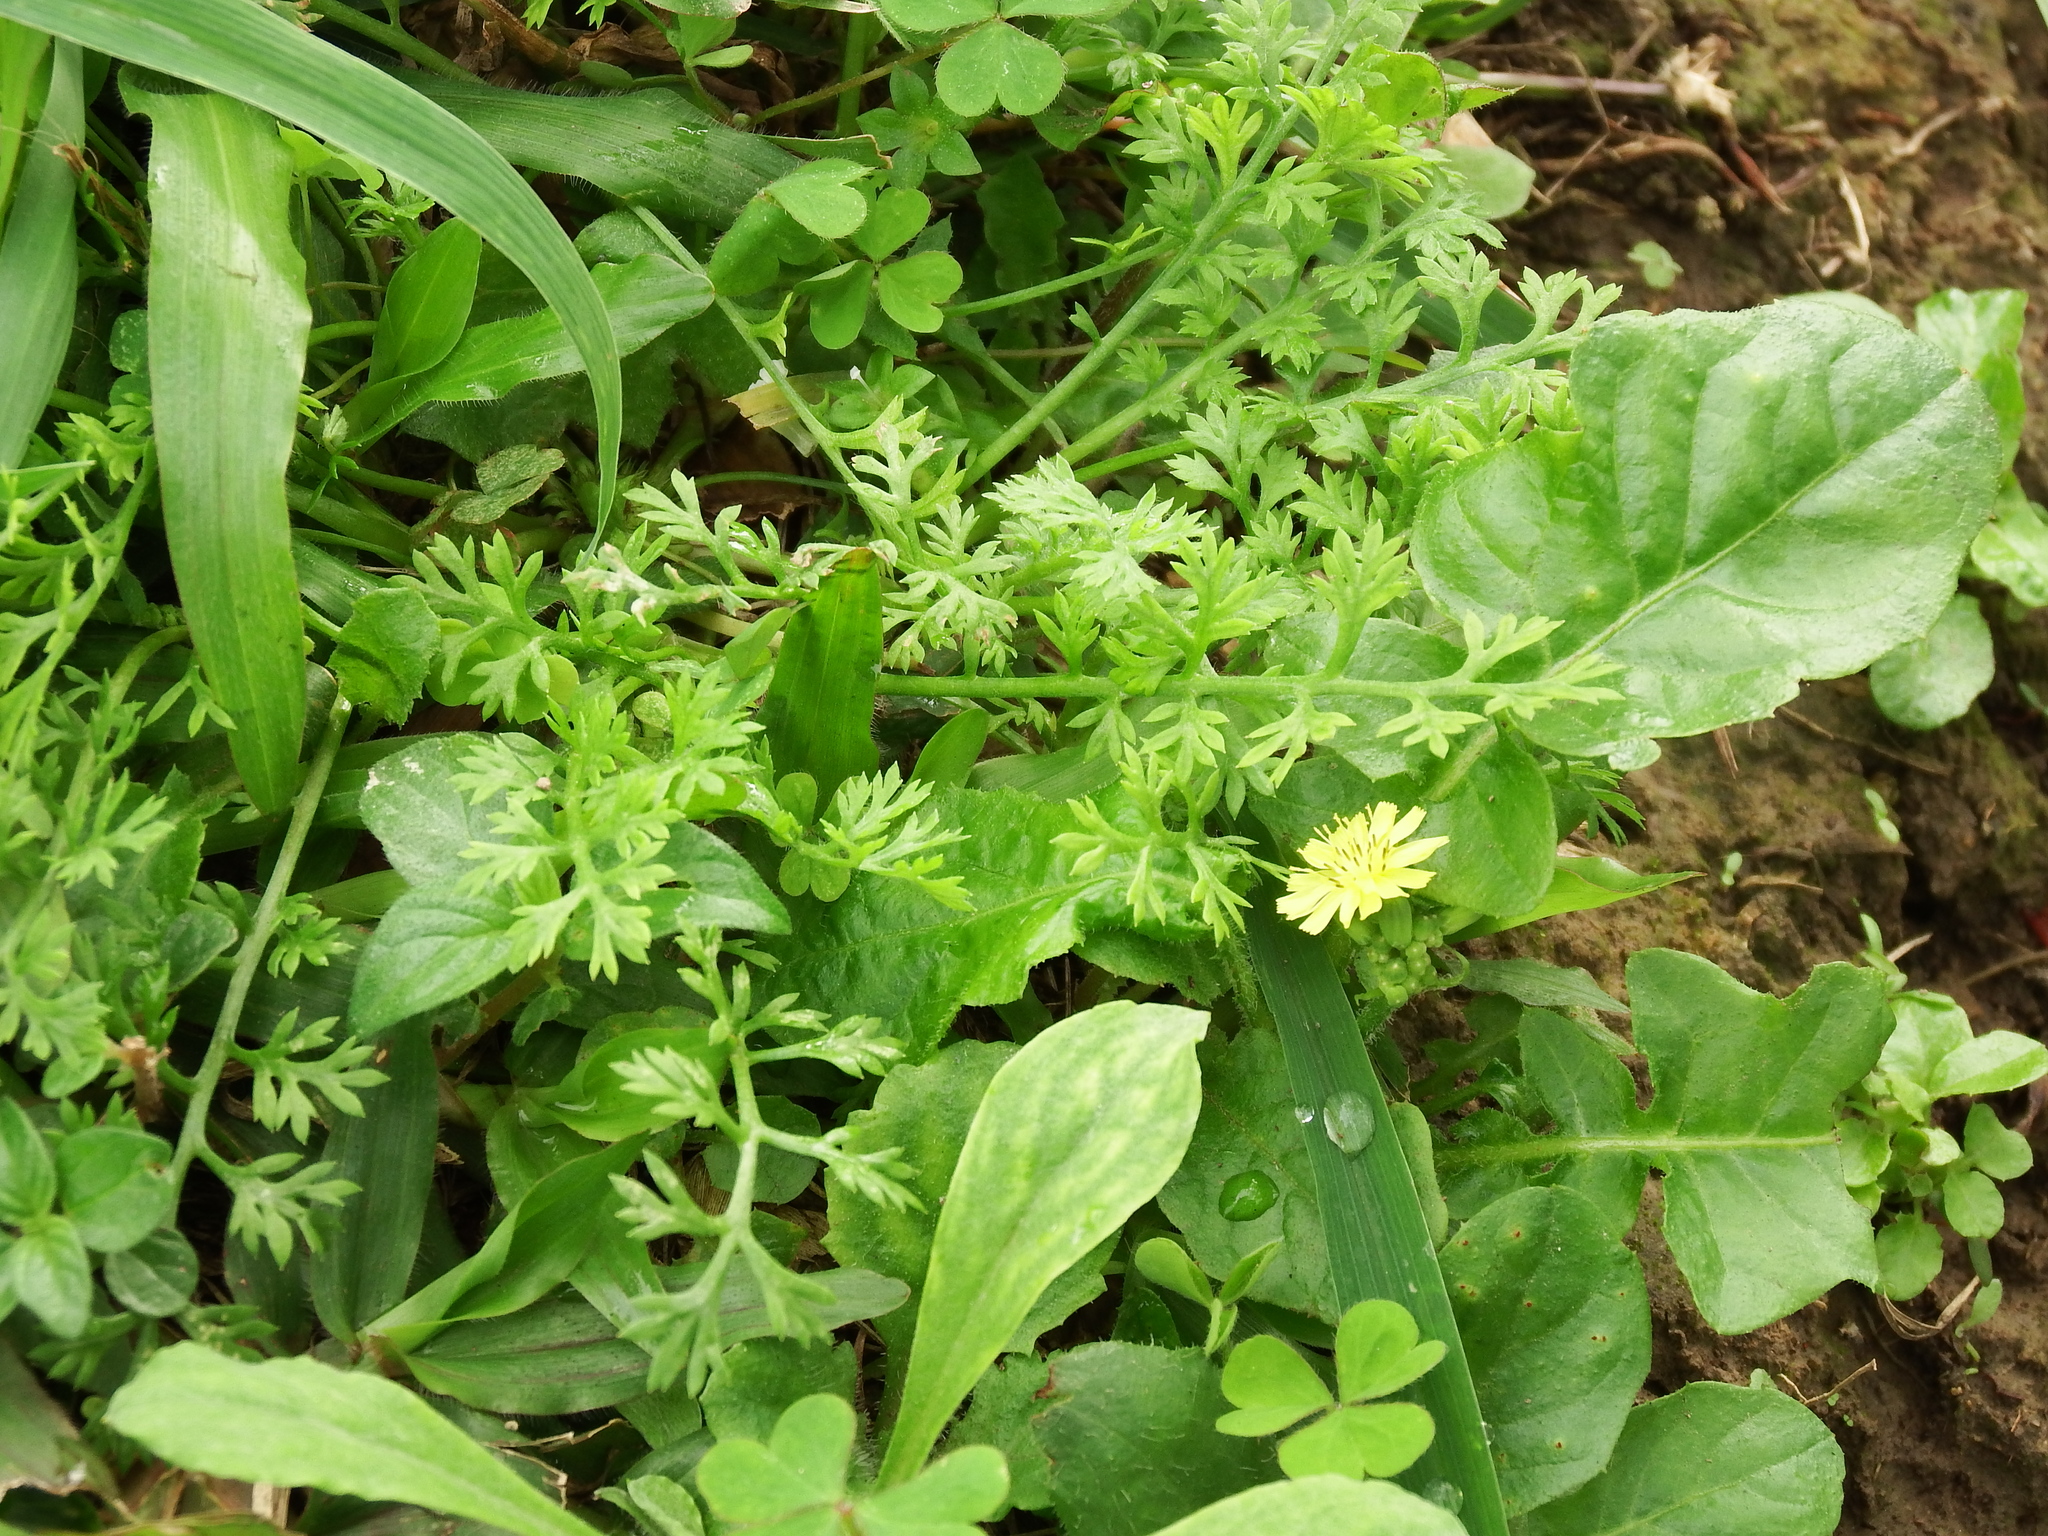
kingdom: Plantae
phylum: Tracheophyta
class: Magnoliopsida
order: Asterales
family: Asteraceae
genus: Soliva
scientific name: Soliva anthemifolia
